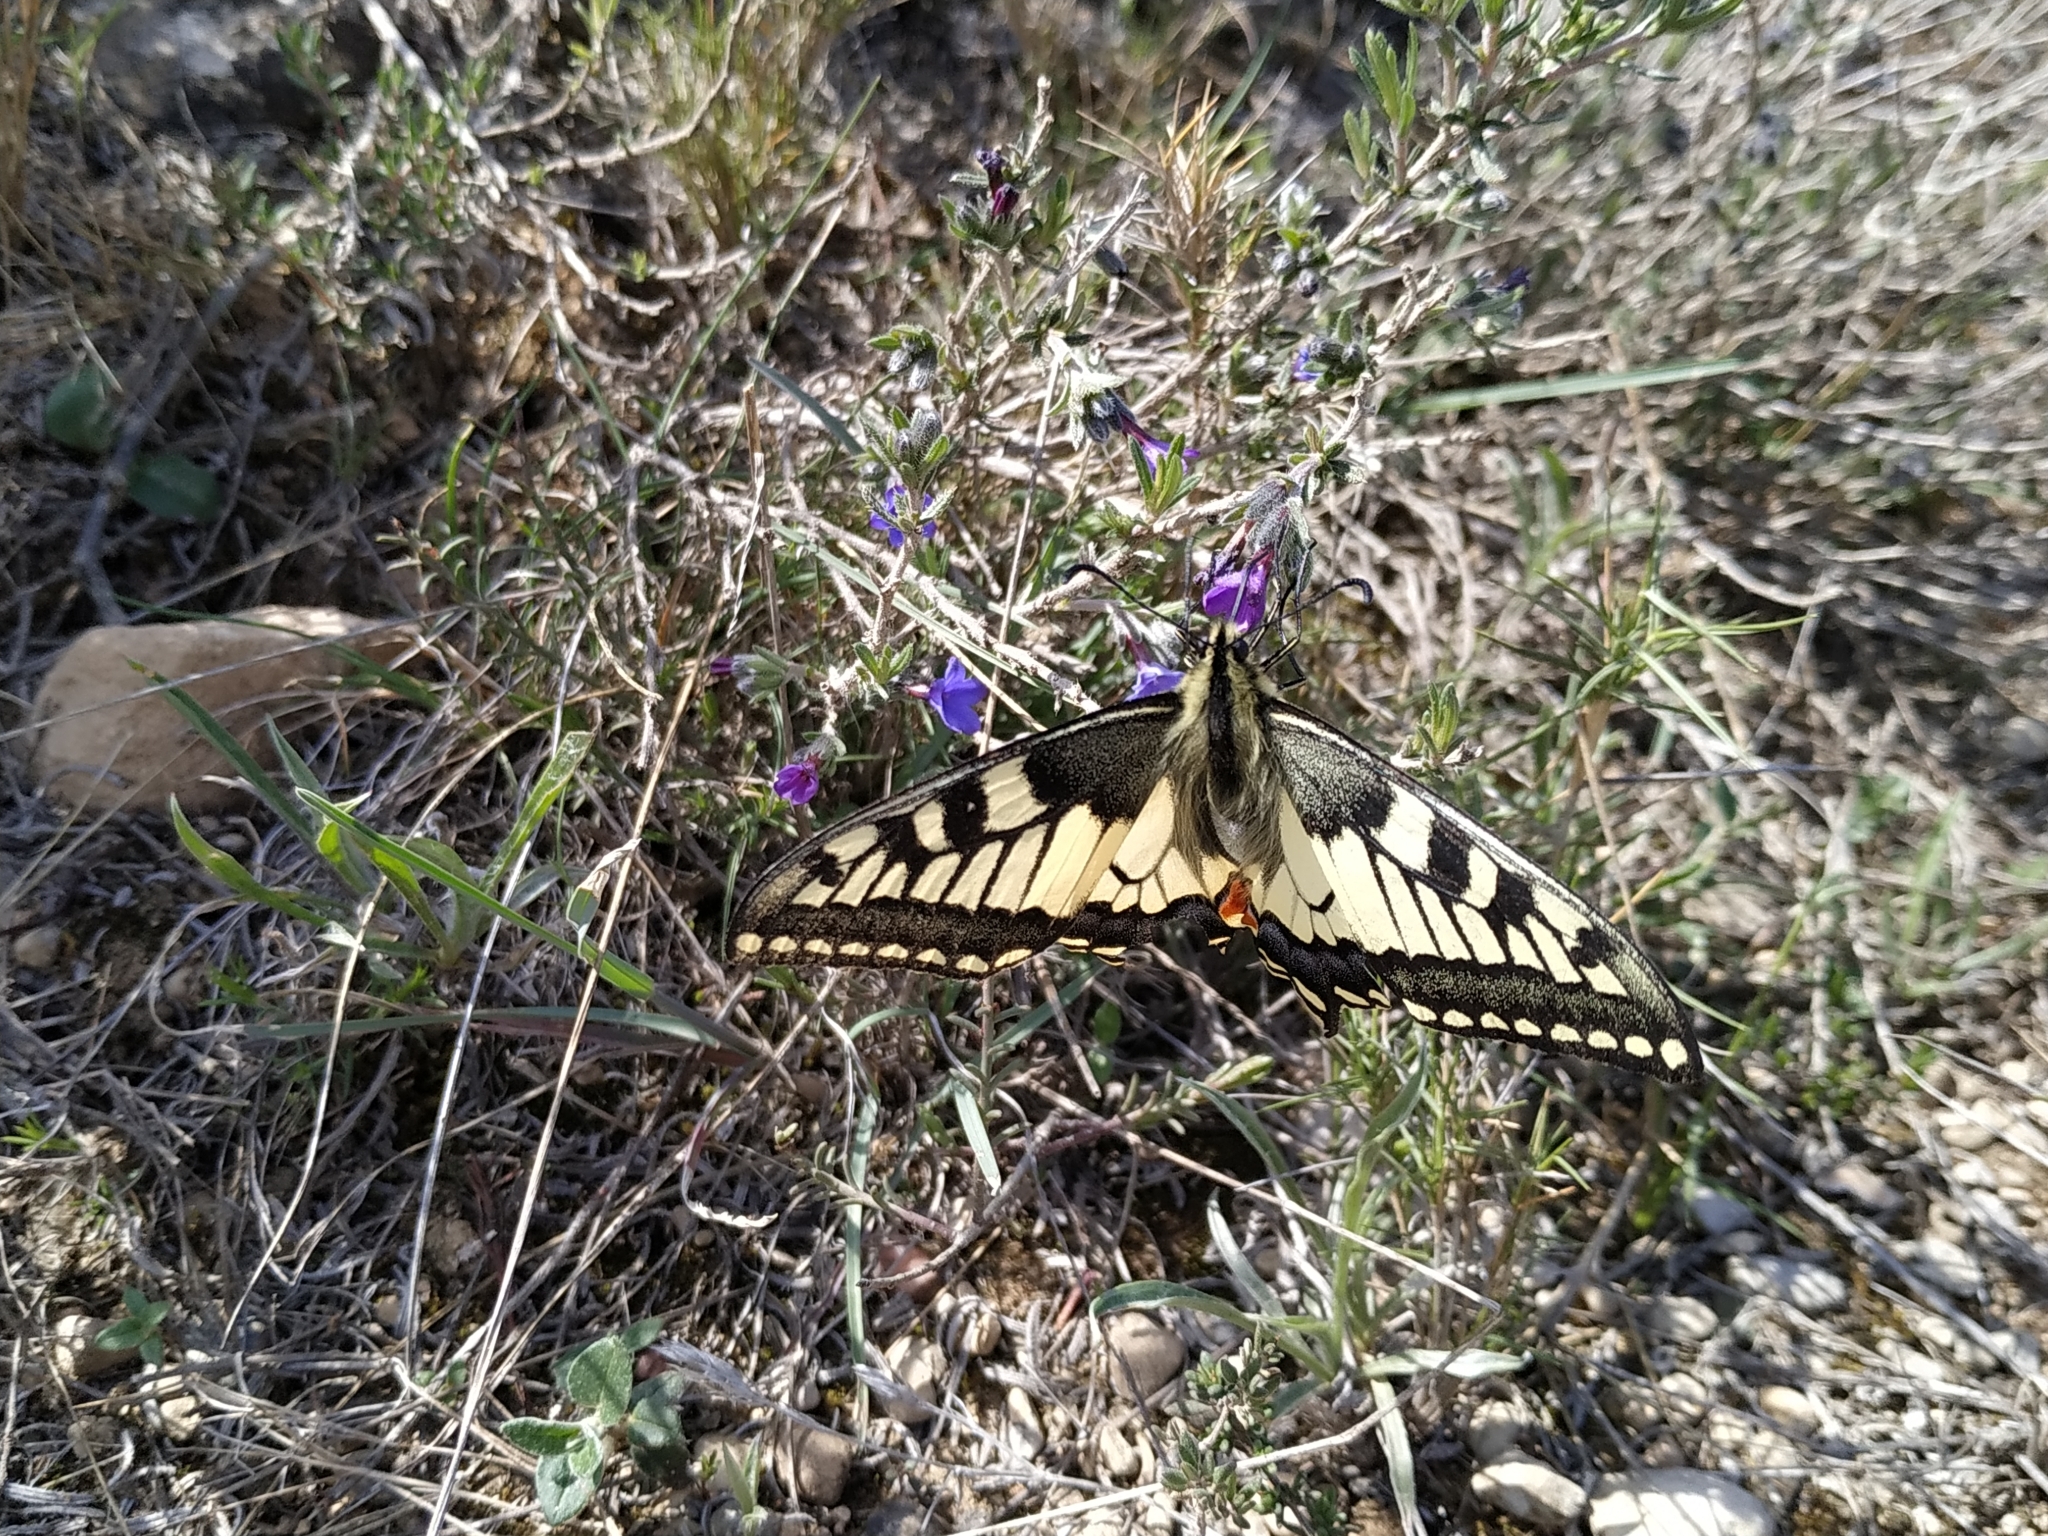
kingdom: Animalia
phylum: Arthropoda
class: Insecta
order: Lepidoptera
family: Papilionidae
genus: Papilio
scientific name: Papilio machaon
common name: Swallowtail
